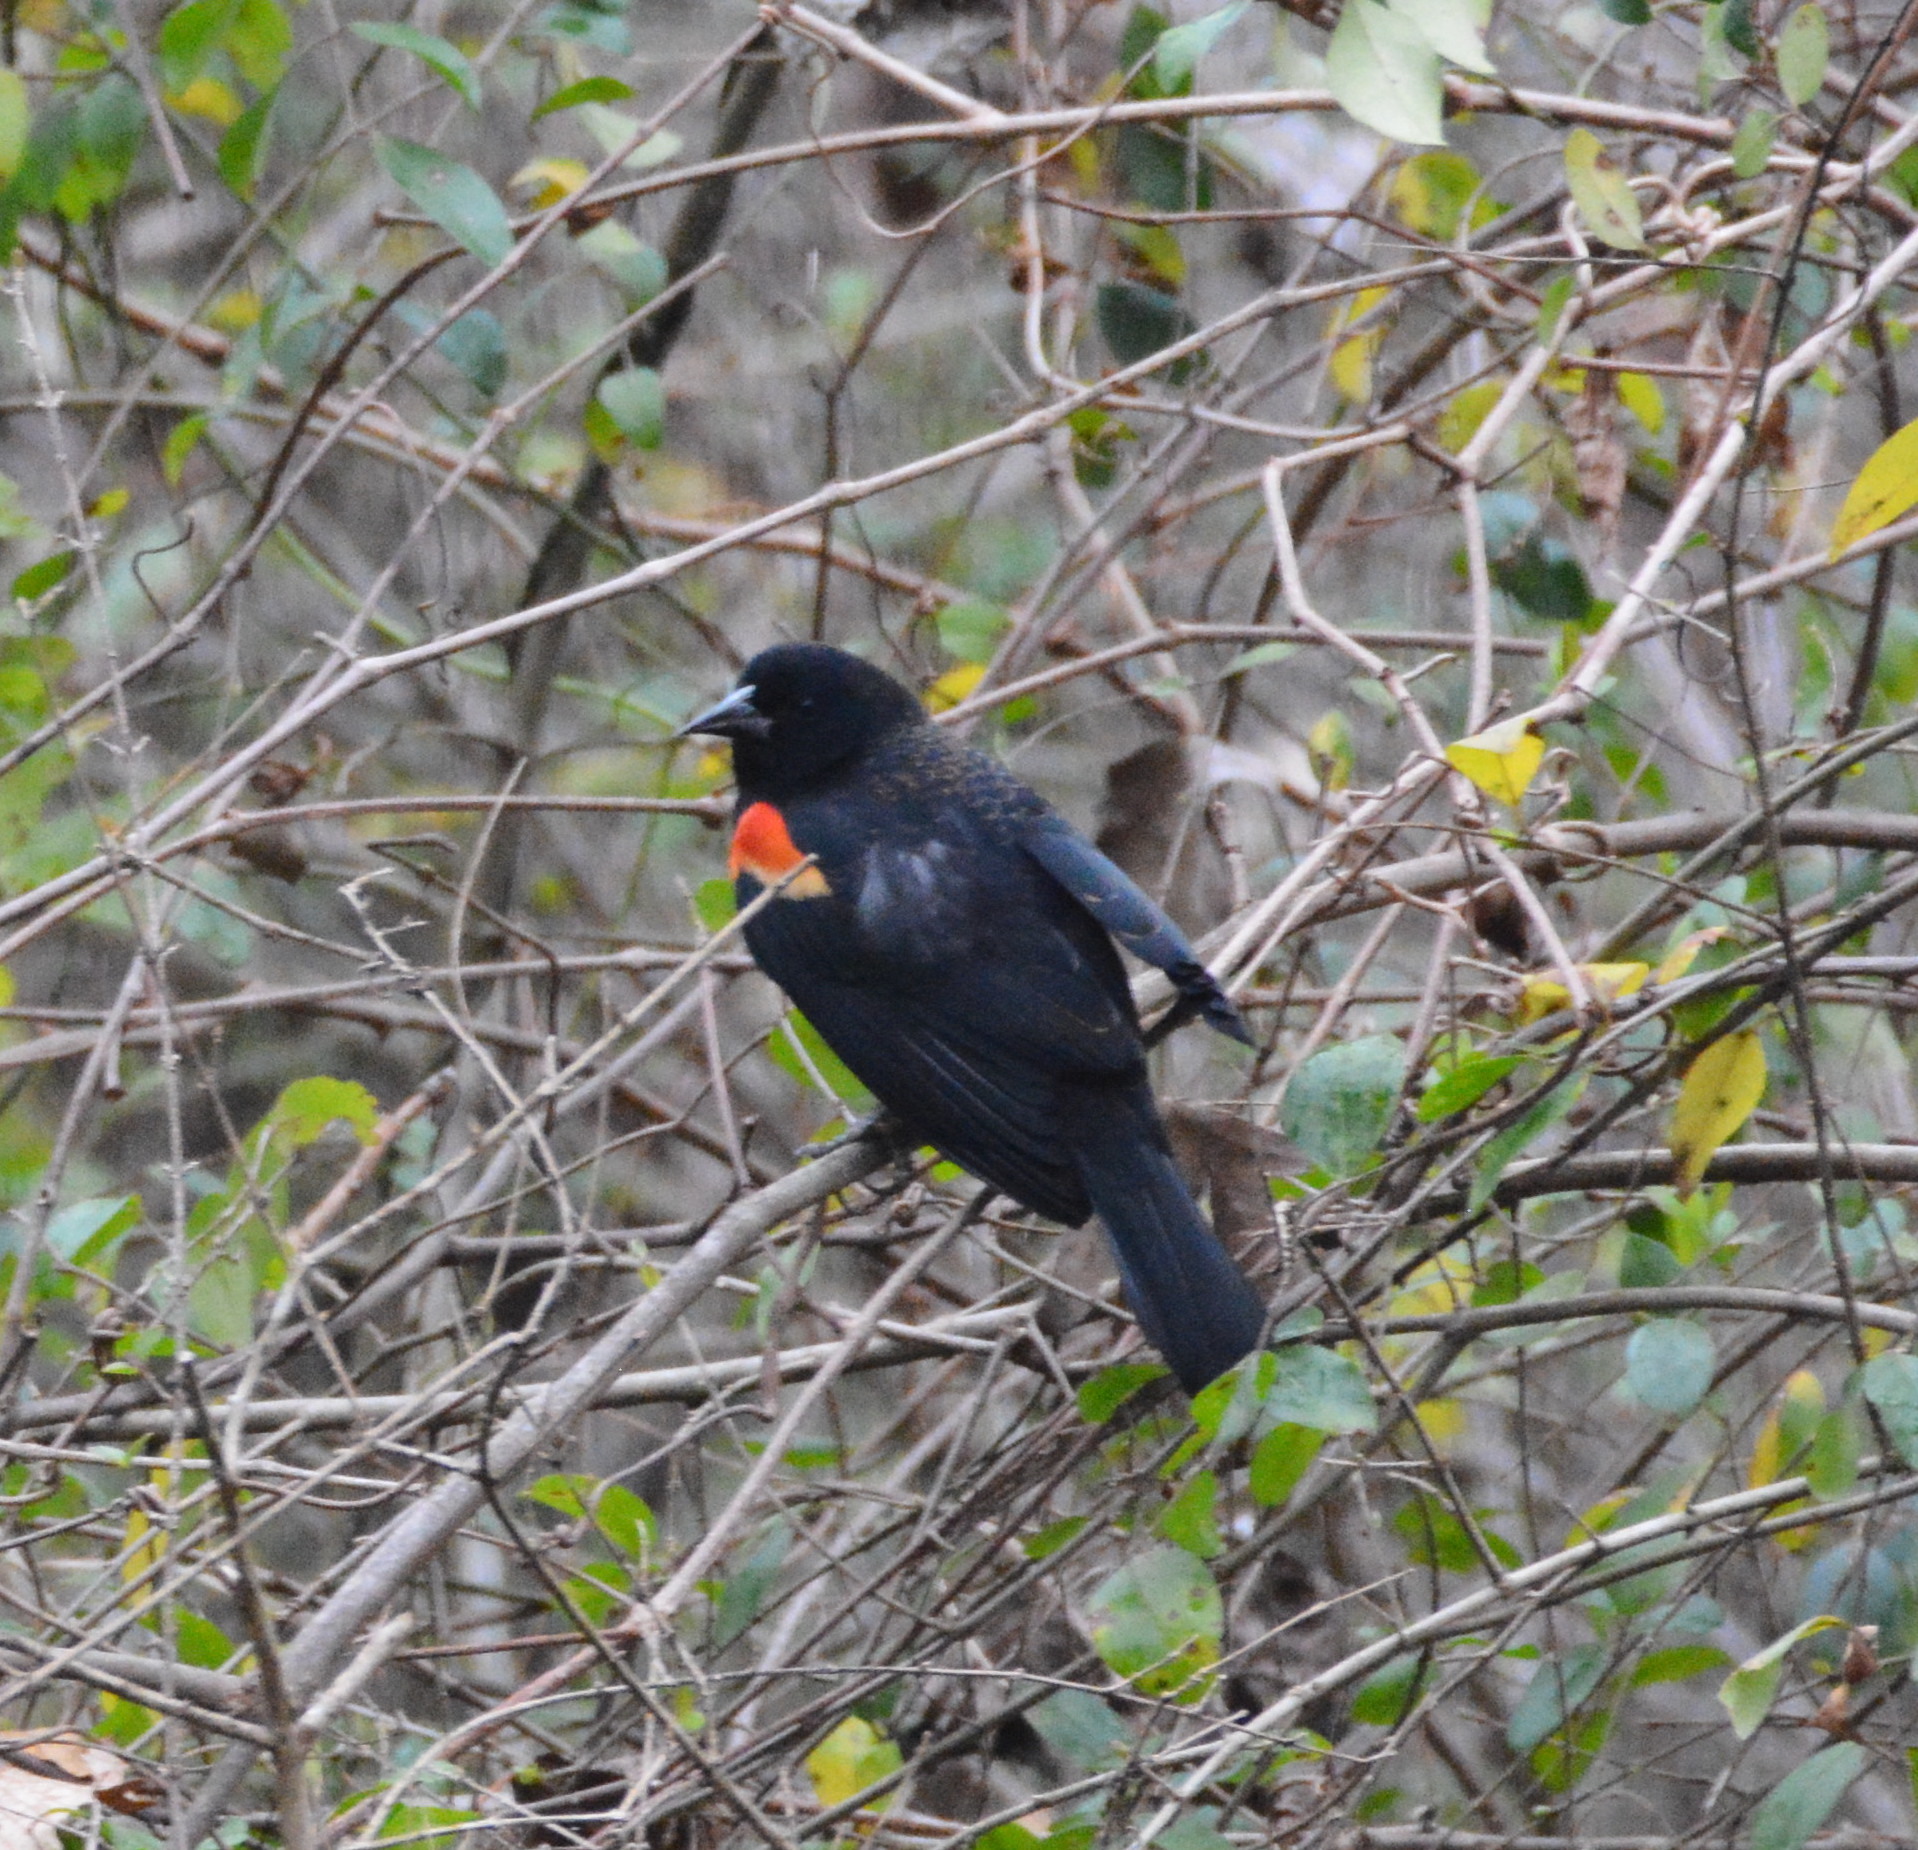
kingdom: Animalia
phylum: Chordata
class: Aves
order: Passeriformes
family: Icteridae
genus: Agelaius
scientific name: Agelaius phoeniceus
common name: Red-winged blackbird
